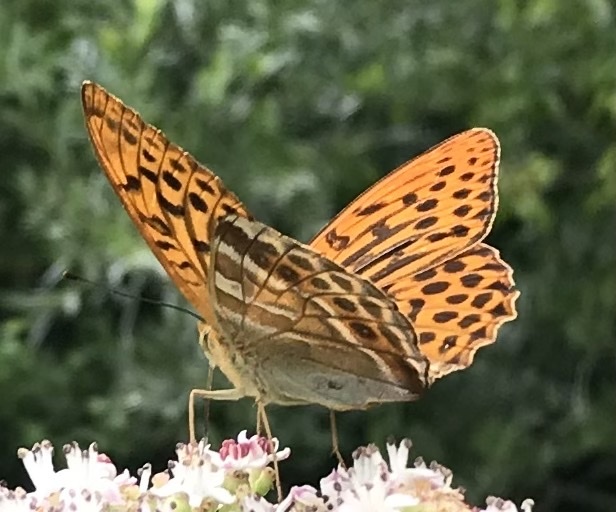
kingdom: Animalia
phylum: Arthropoda
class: Insecta
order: Lepidoptera
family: Nymphalidae
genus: Argynnis
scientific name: Argynnis paphia
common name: Silver-washed fritillary
